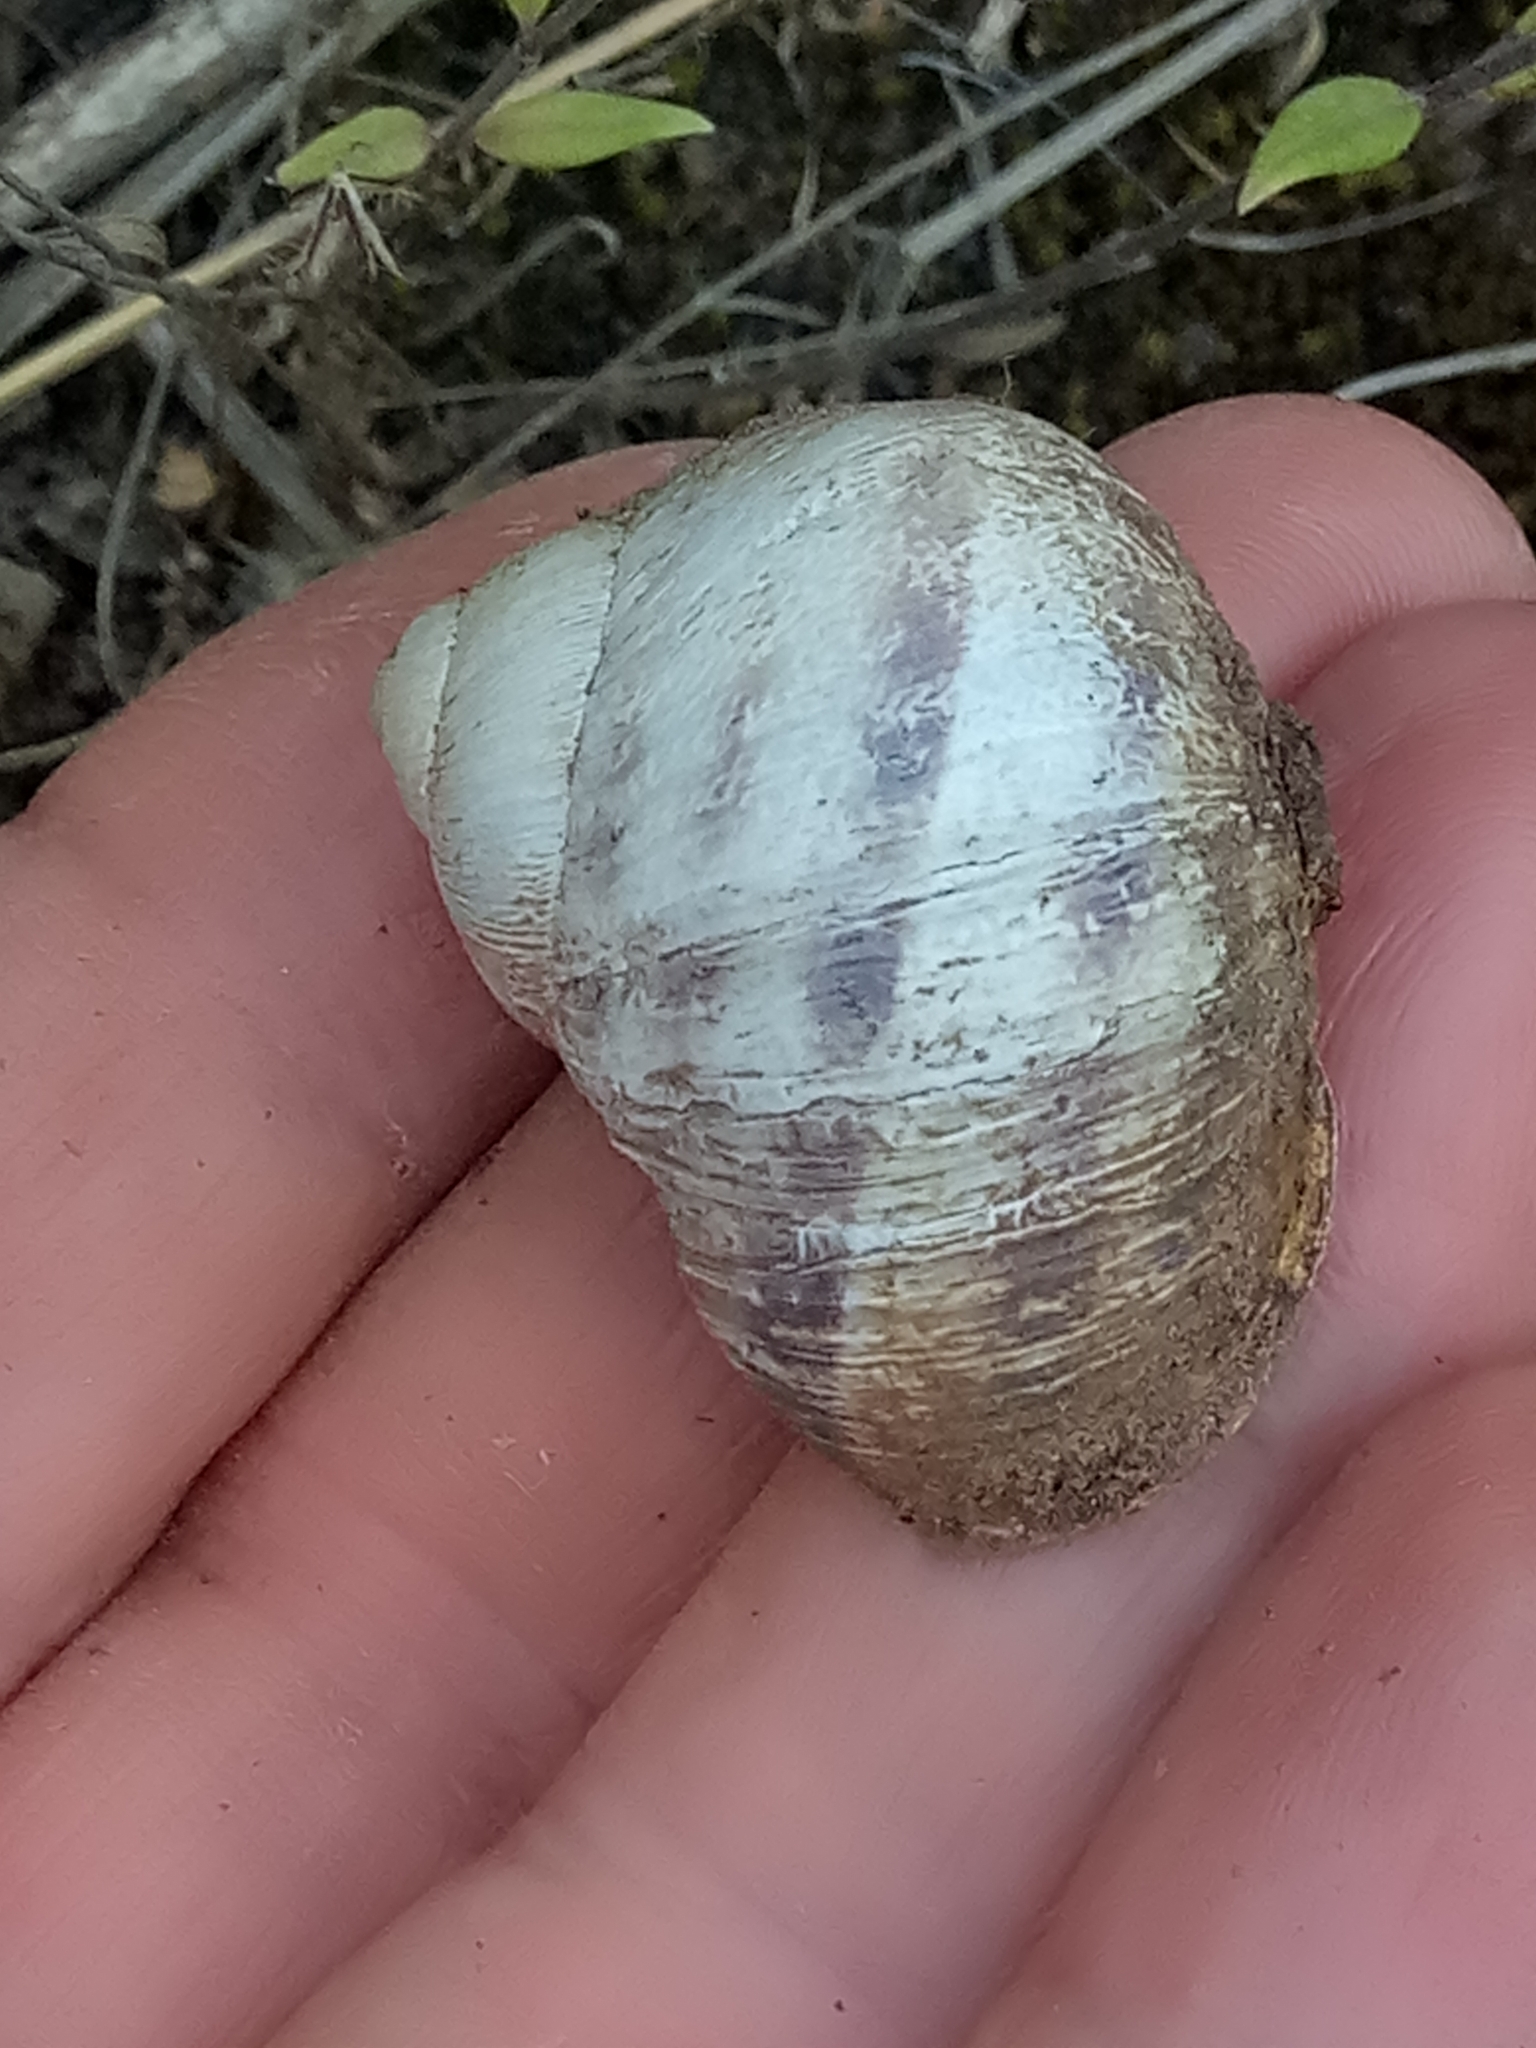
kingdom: Animalia
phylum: Mollusca
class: Gastropoda
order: Stylommatophora
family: Helicidae
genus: Cornu
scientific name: Cornu aspersum
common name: Brown garden snail
